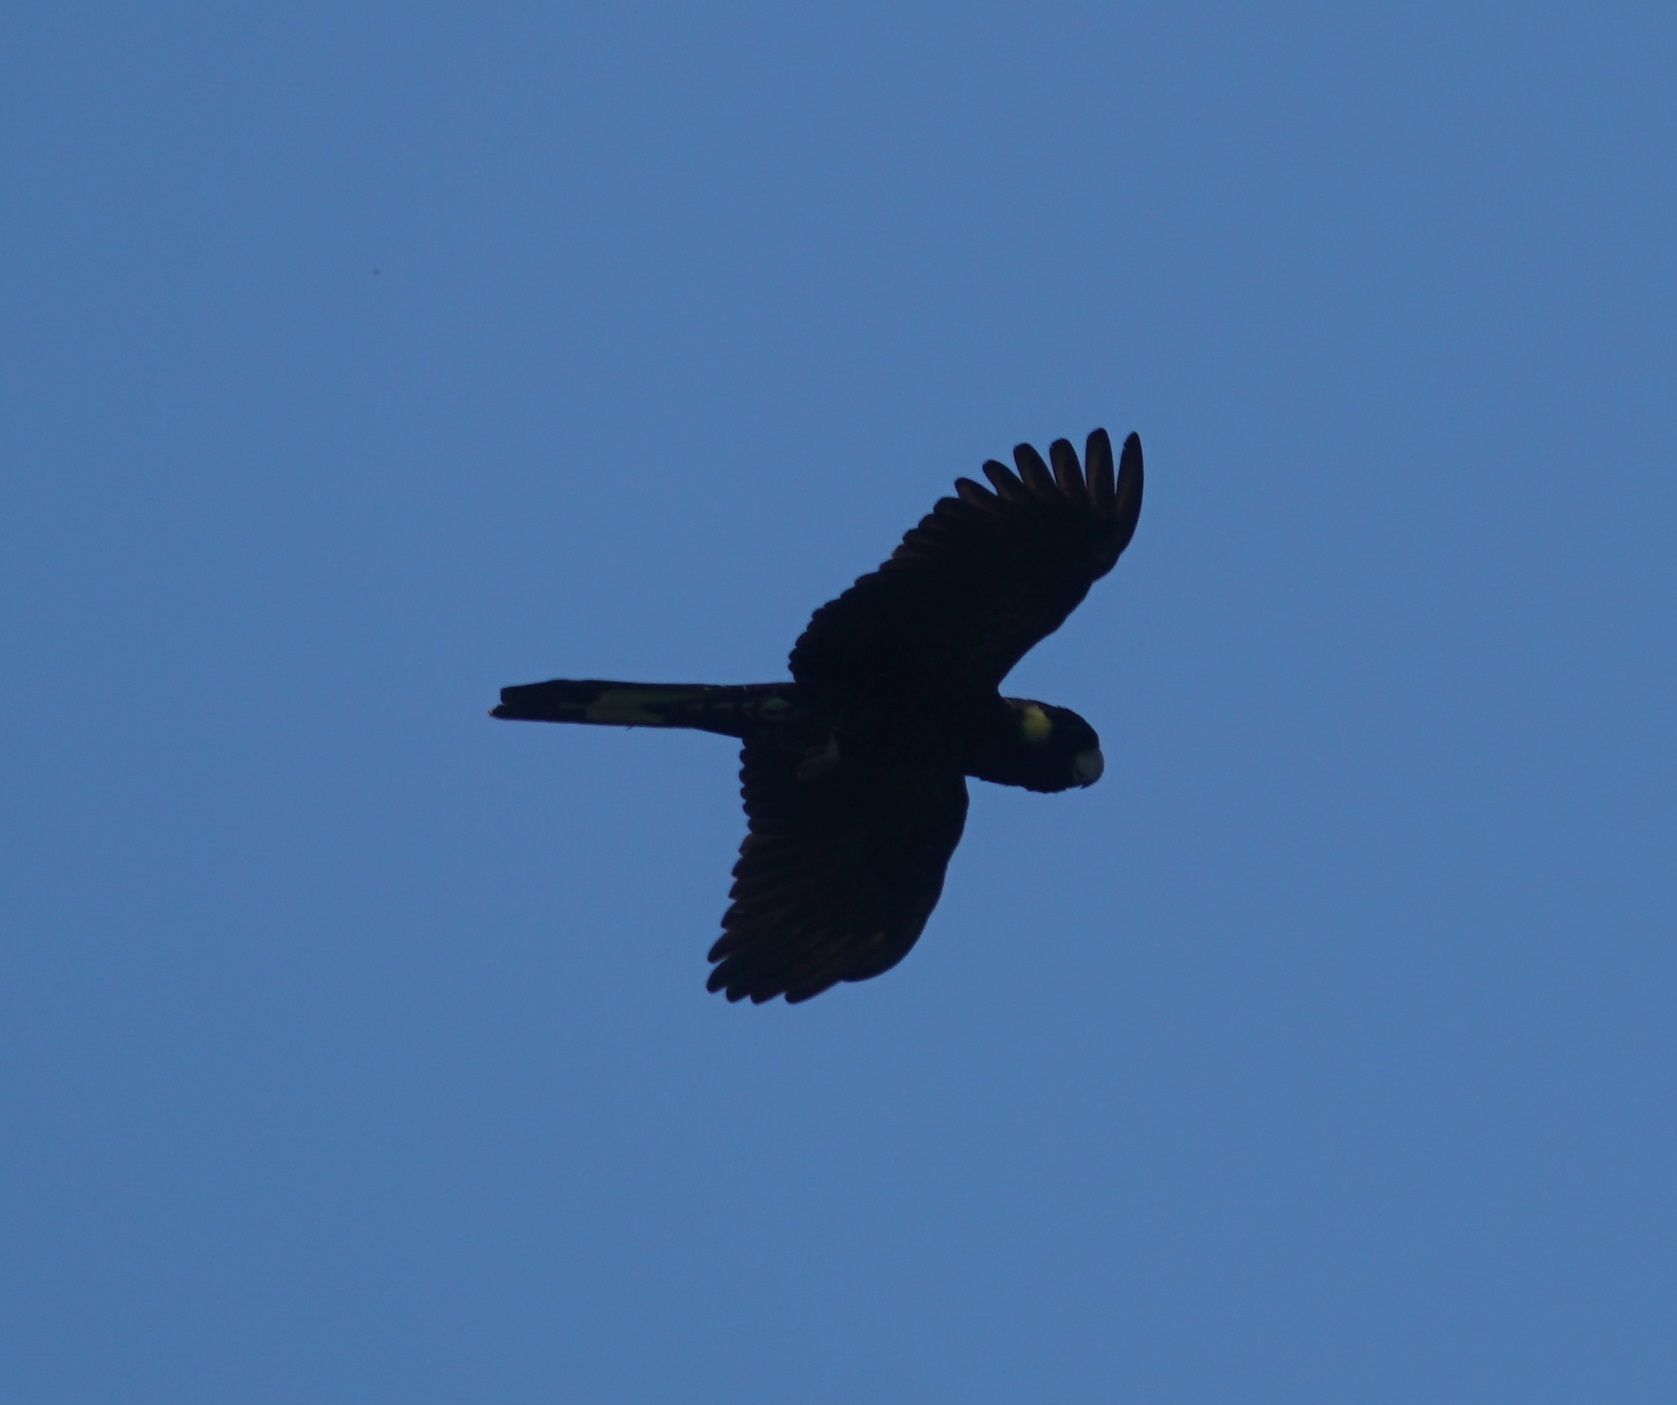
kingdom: Animalia
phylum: Chordata
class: Aves
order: Psittaciformes
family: Cacatuidae
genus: Zanda
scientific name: Zanda funerea
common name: Yellow-tailed black-cockatoo
